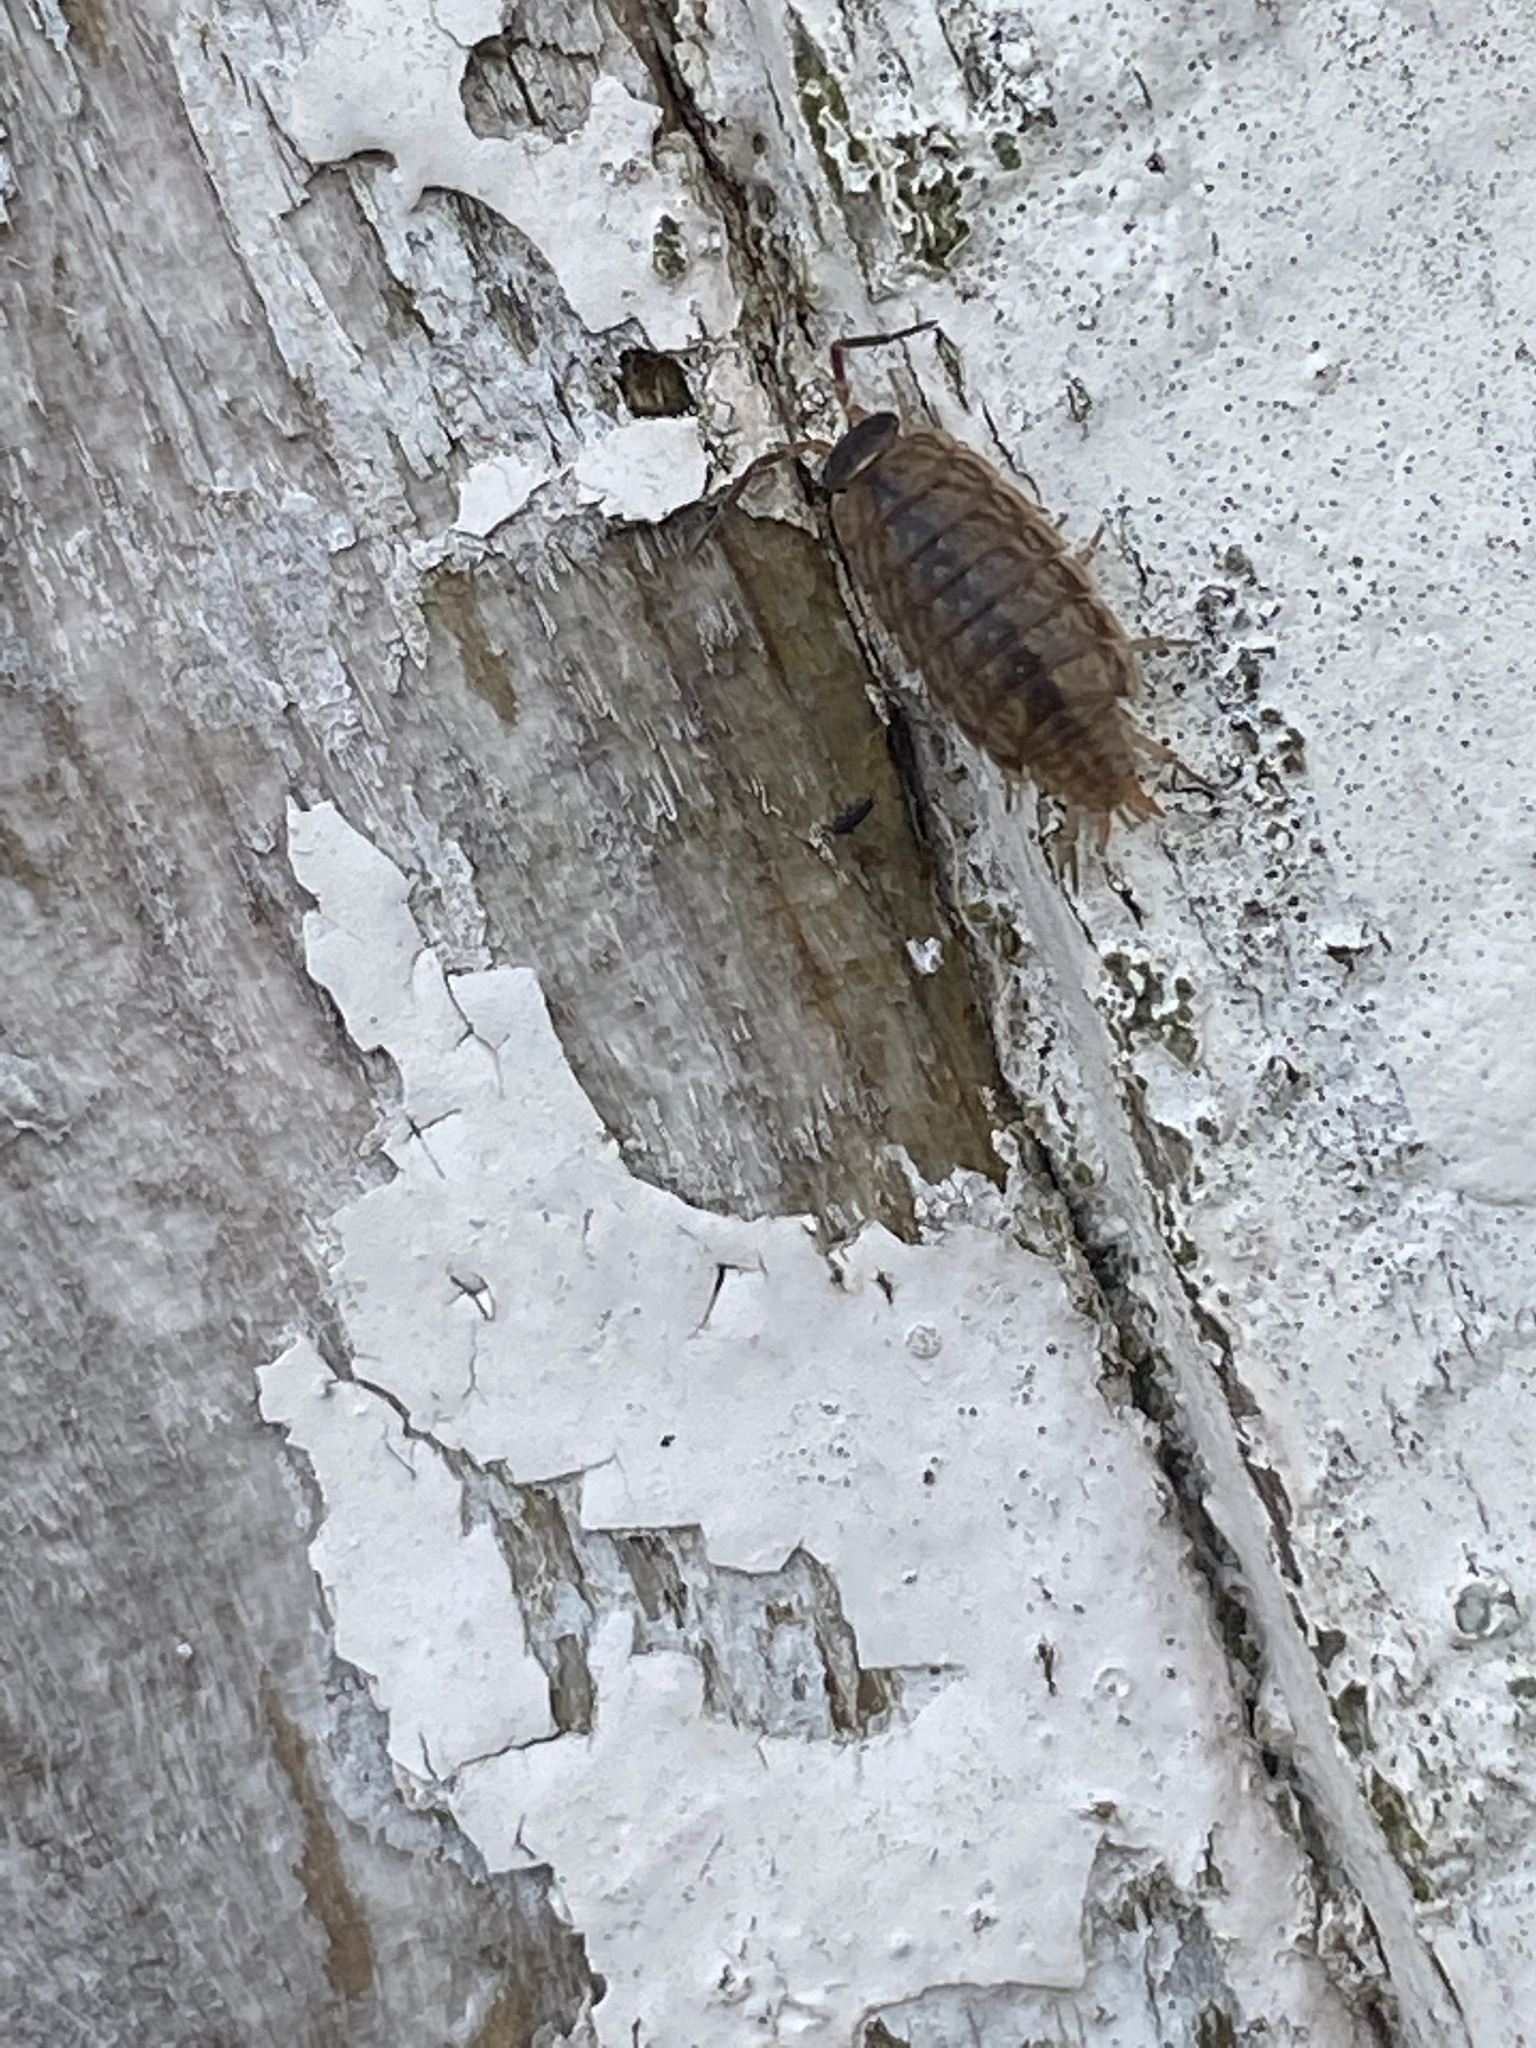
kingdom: Animalia
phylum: Arthropoda
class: Malacostraca
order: Isopoda
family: Philosciidae
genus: Philoscia
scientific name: Philoscia muscorum
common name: Common striped woodlouse
